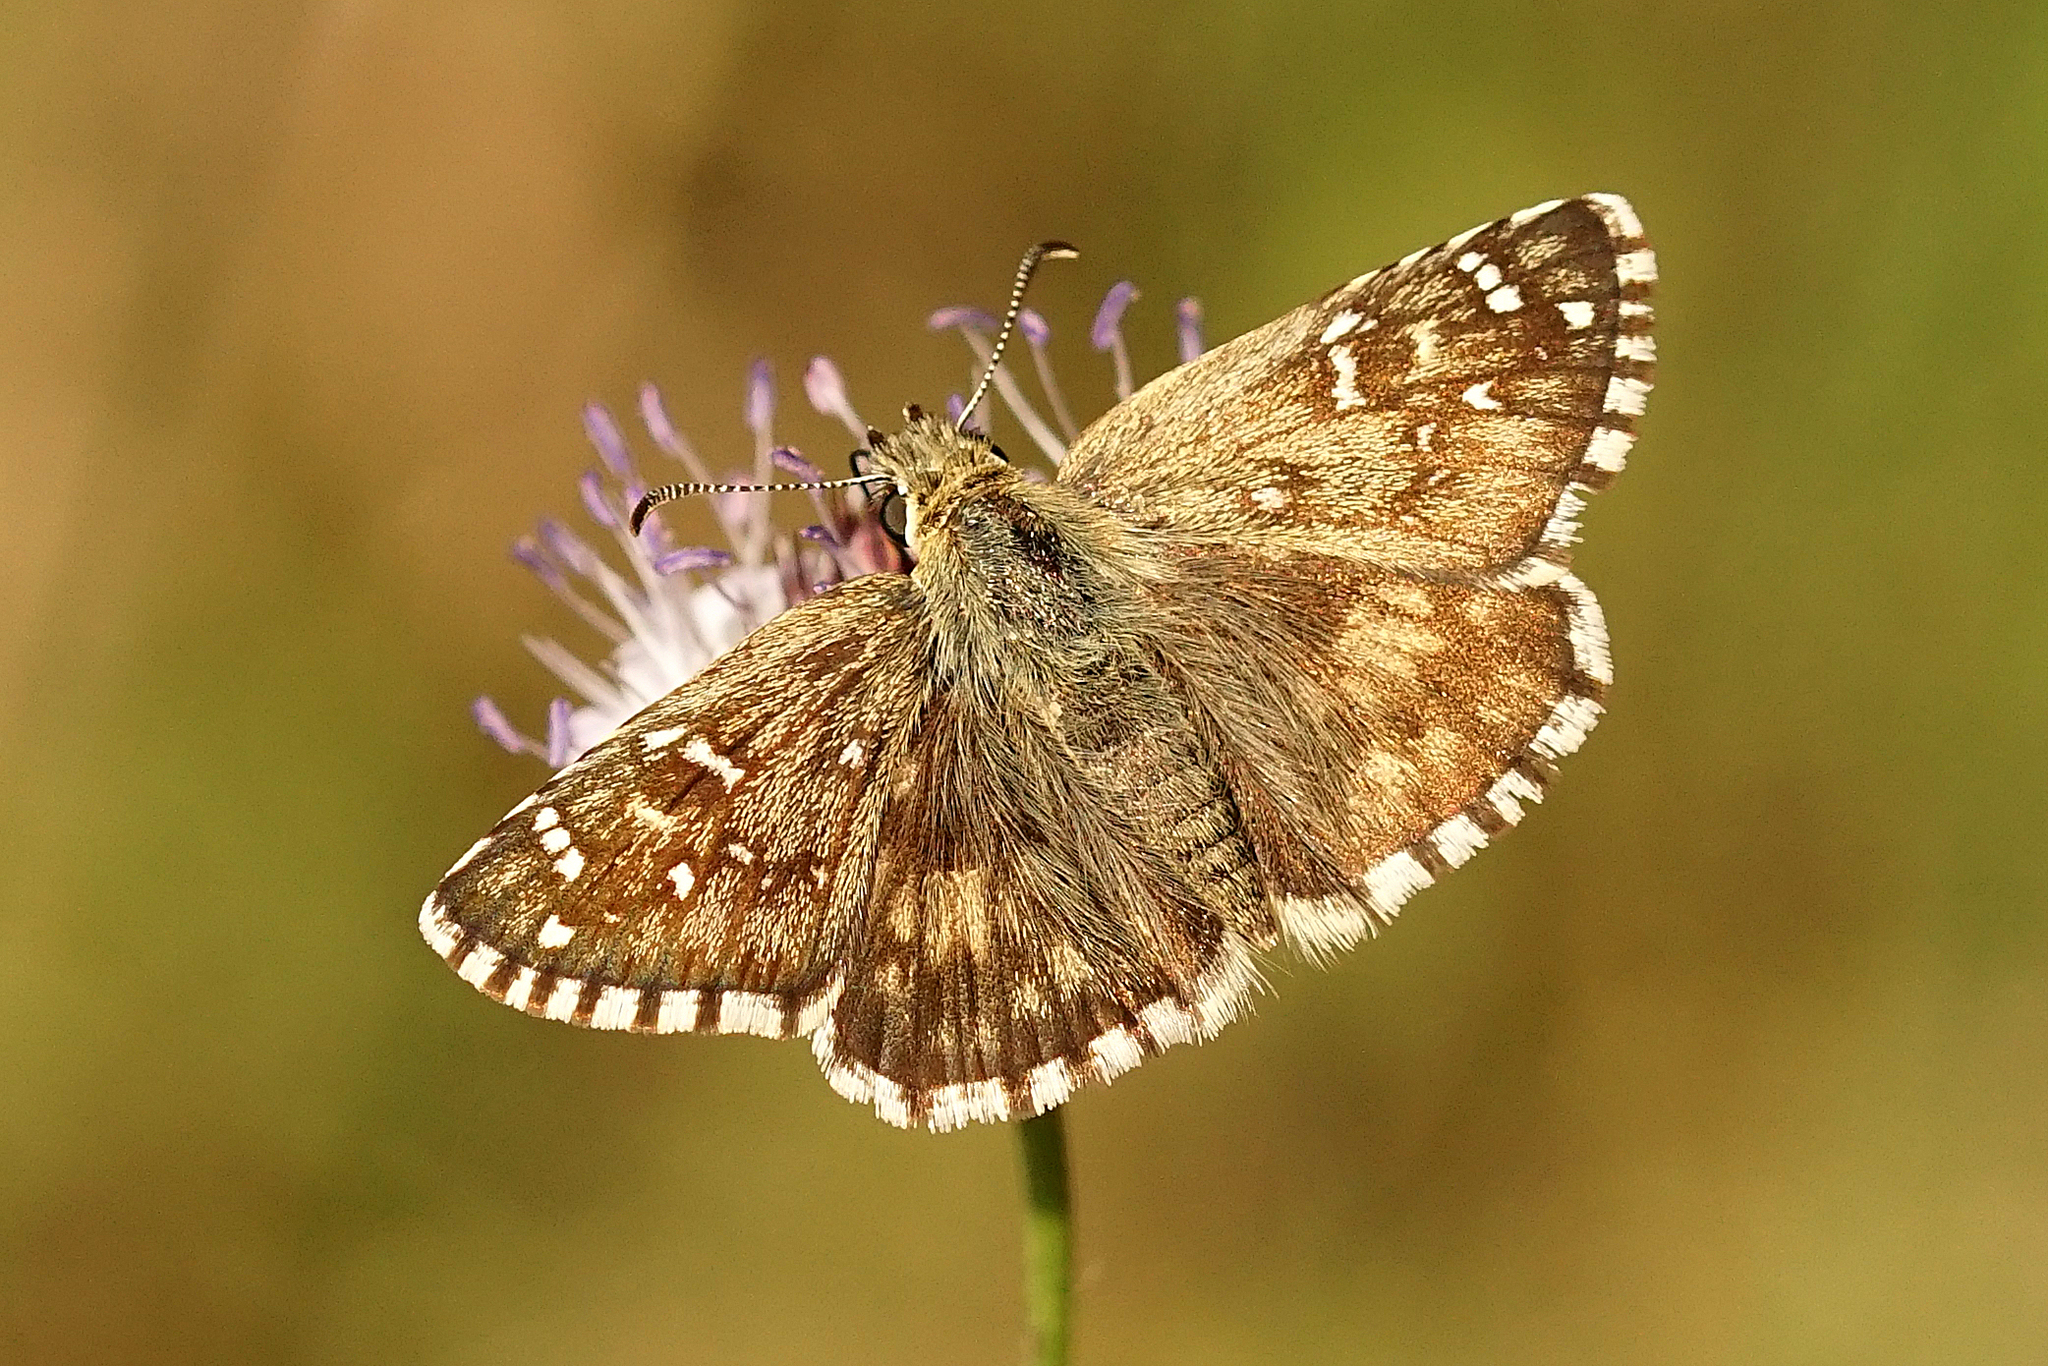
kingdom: Animalia
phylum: Arthropoda
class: Insecta
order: Lepidoptera
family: Hesperiidae
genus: Pyrgus
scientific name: Pyrgus armoricanus
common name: Oberthür's grizzled skipper
